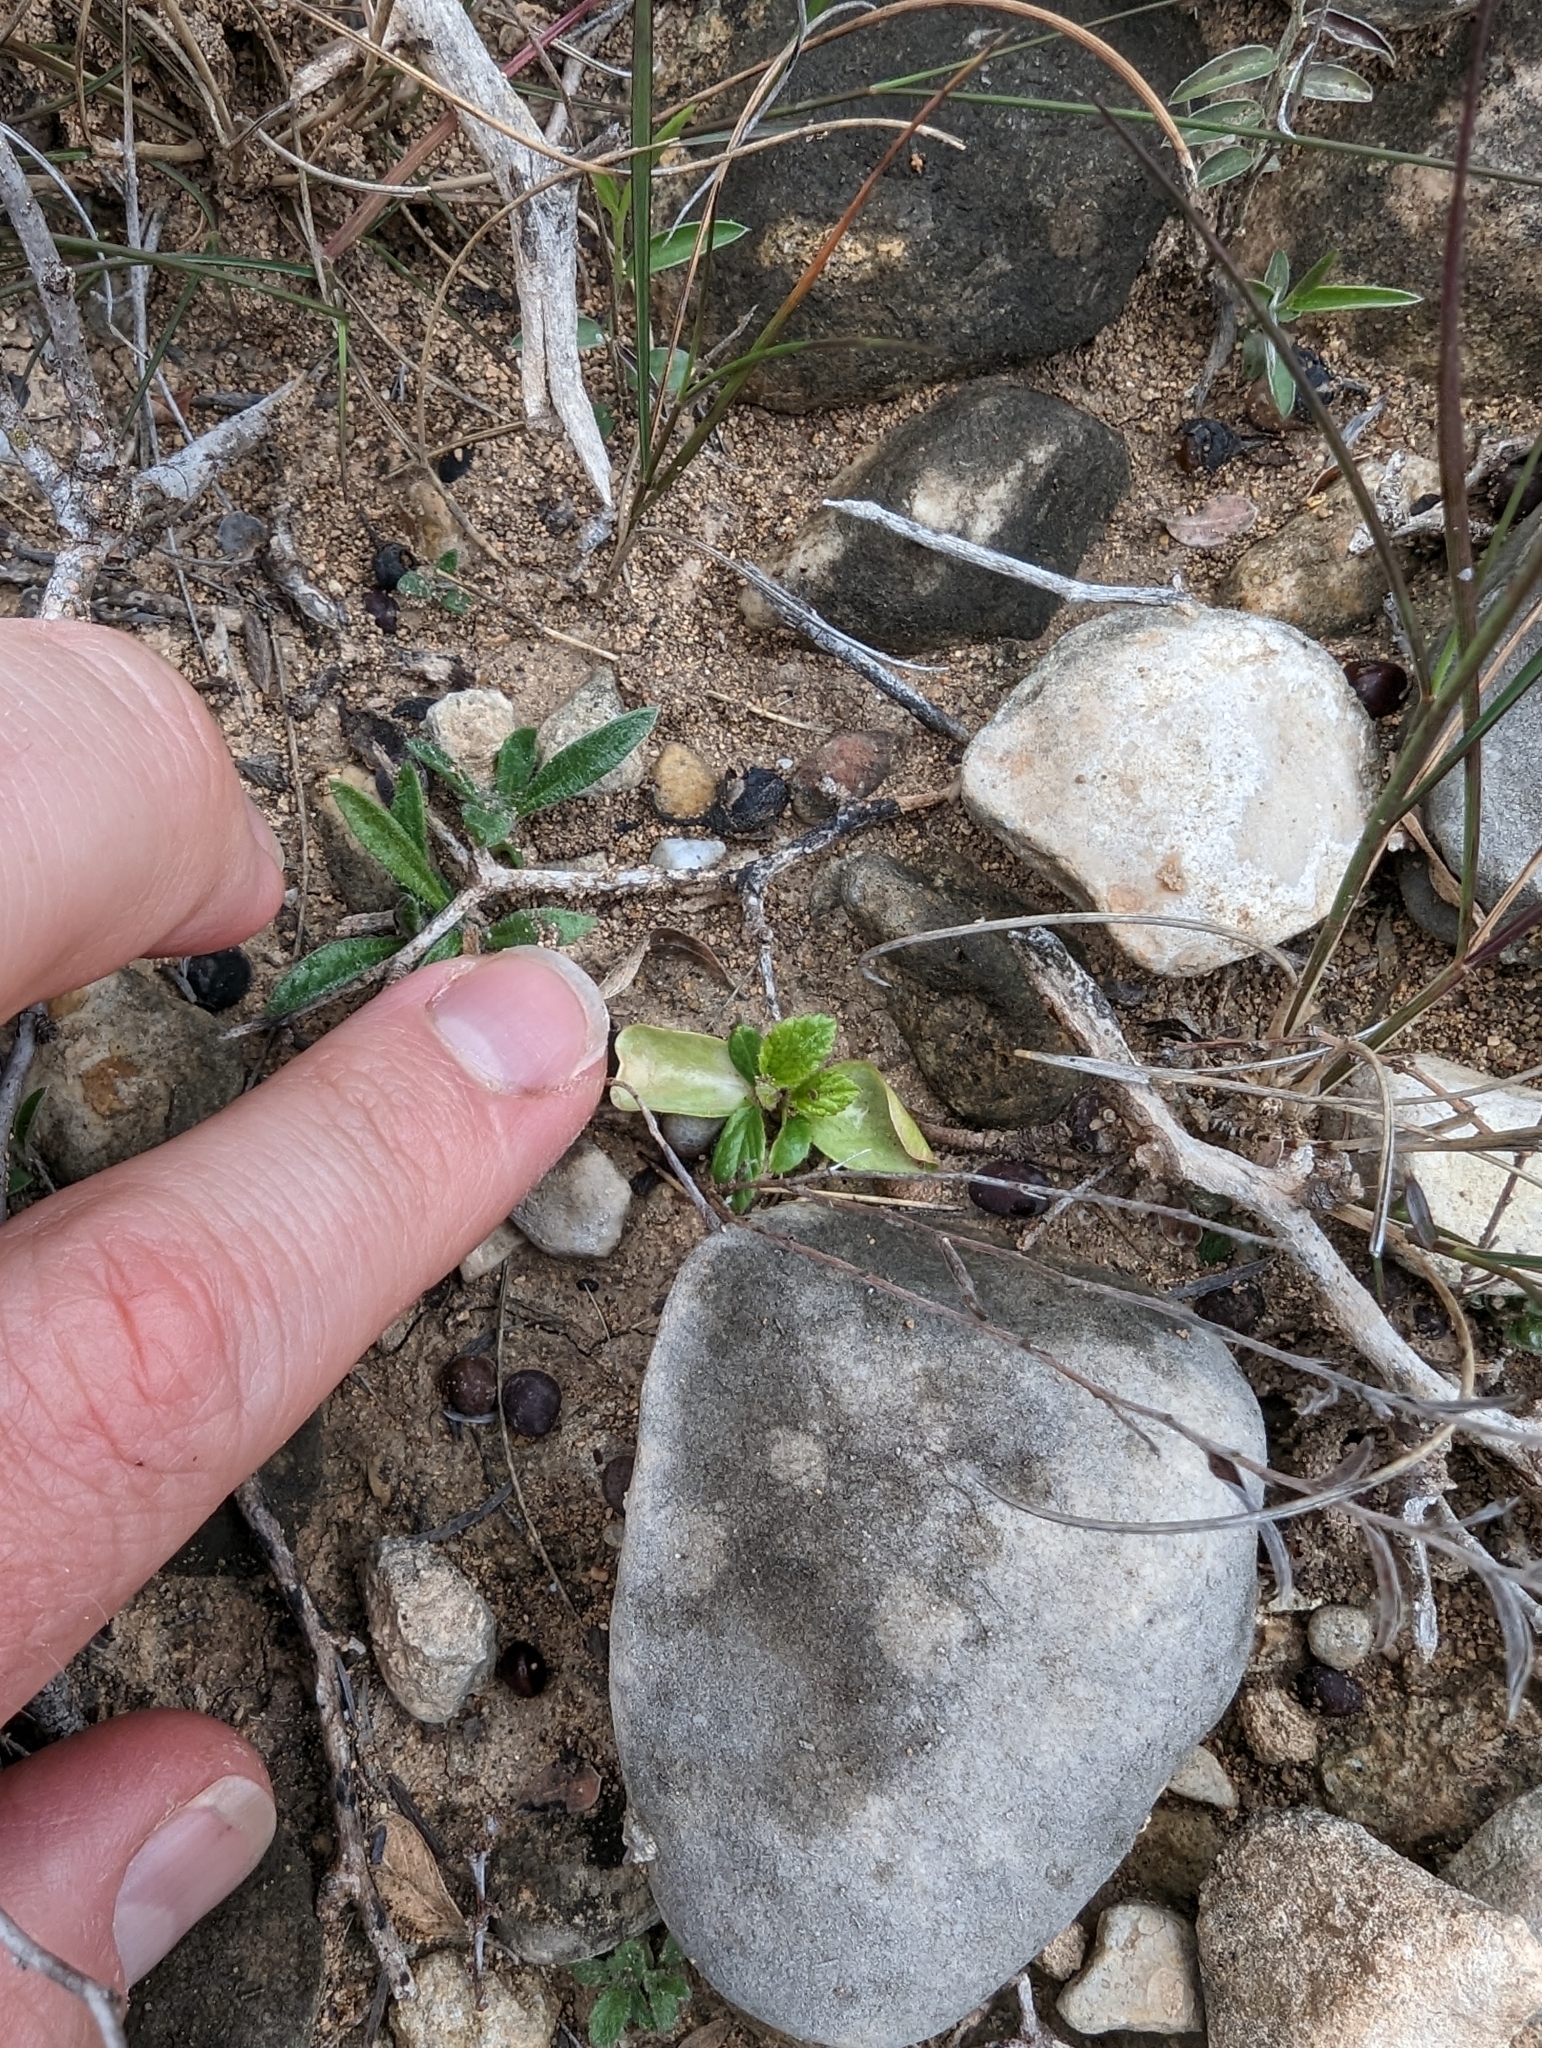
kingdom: Plantae
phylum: Tracheophyta
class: Magnoliopsida
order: Rosales
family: Rhamnaceae
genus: Colubrina
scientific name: Colubrina texensis
